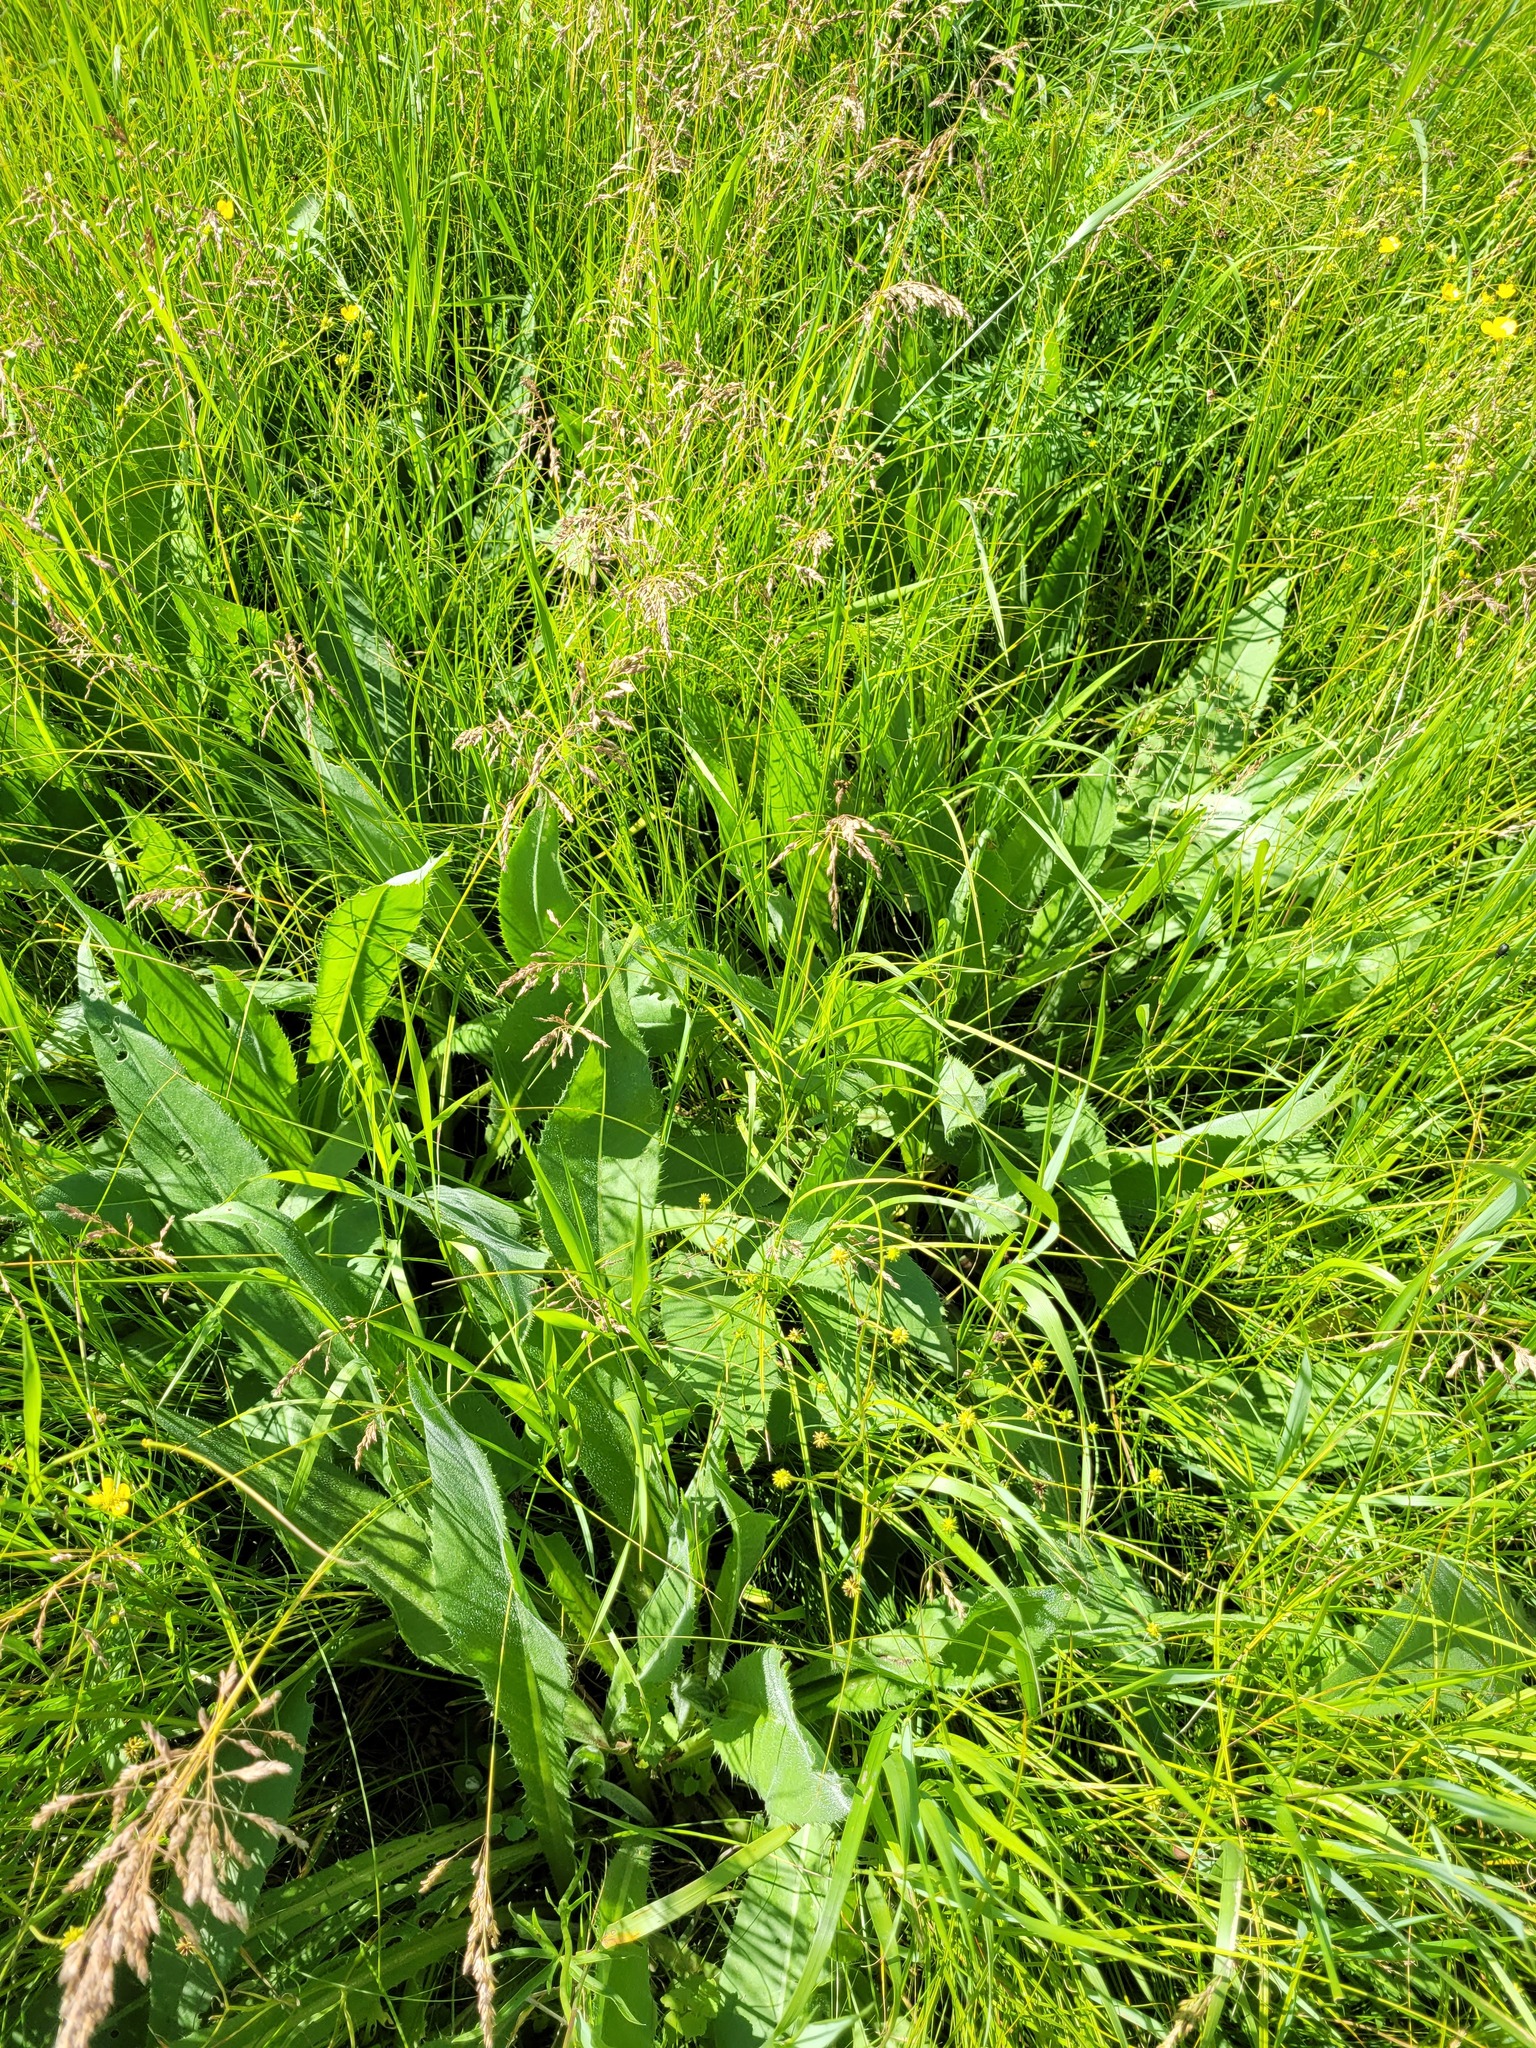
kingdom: Plantae
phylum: Tracheophyta
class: Magnoliopsida
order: Asterales
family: Asteraceae
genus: Cirsium
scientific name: Cirsium canum
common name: Queen anne's thistle
